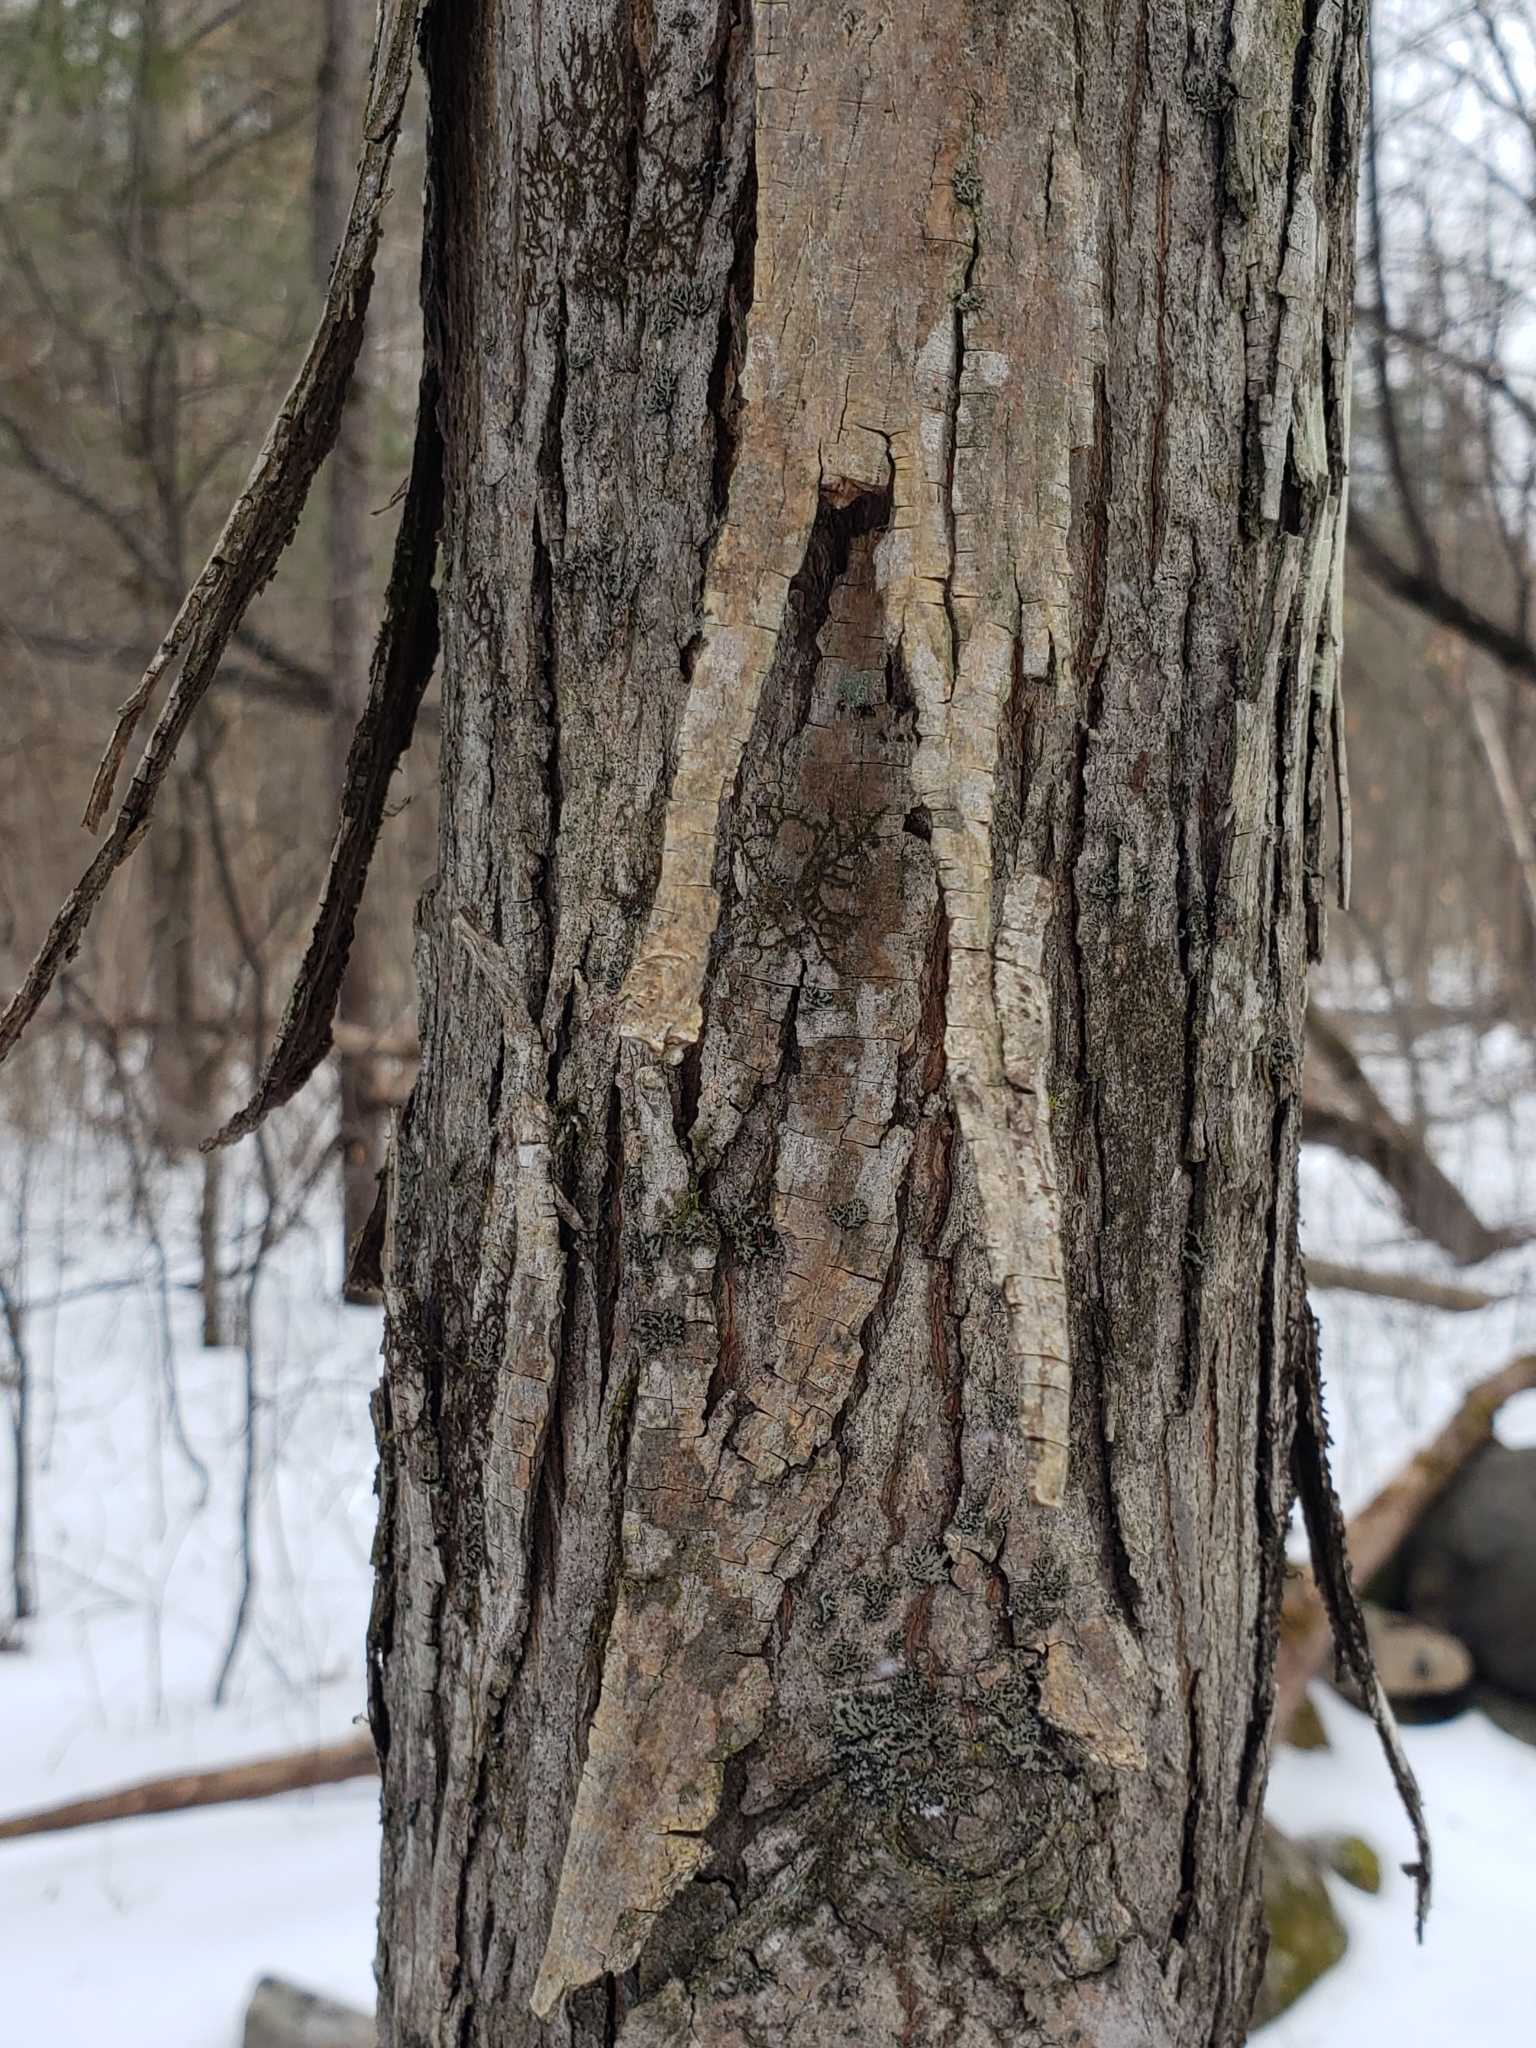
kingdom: Plantae
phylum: Tracheophyta
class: Magnoliopsida
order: Fagales
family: Juglandaceae
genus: Carya
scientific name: Carya ovata
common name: Shagbark hickory
